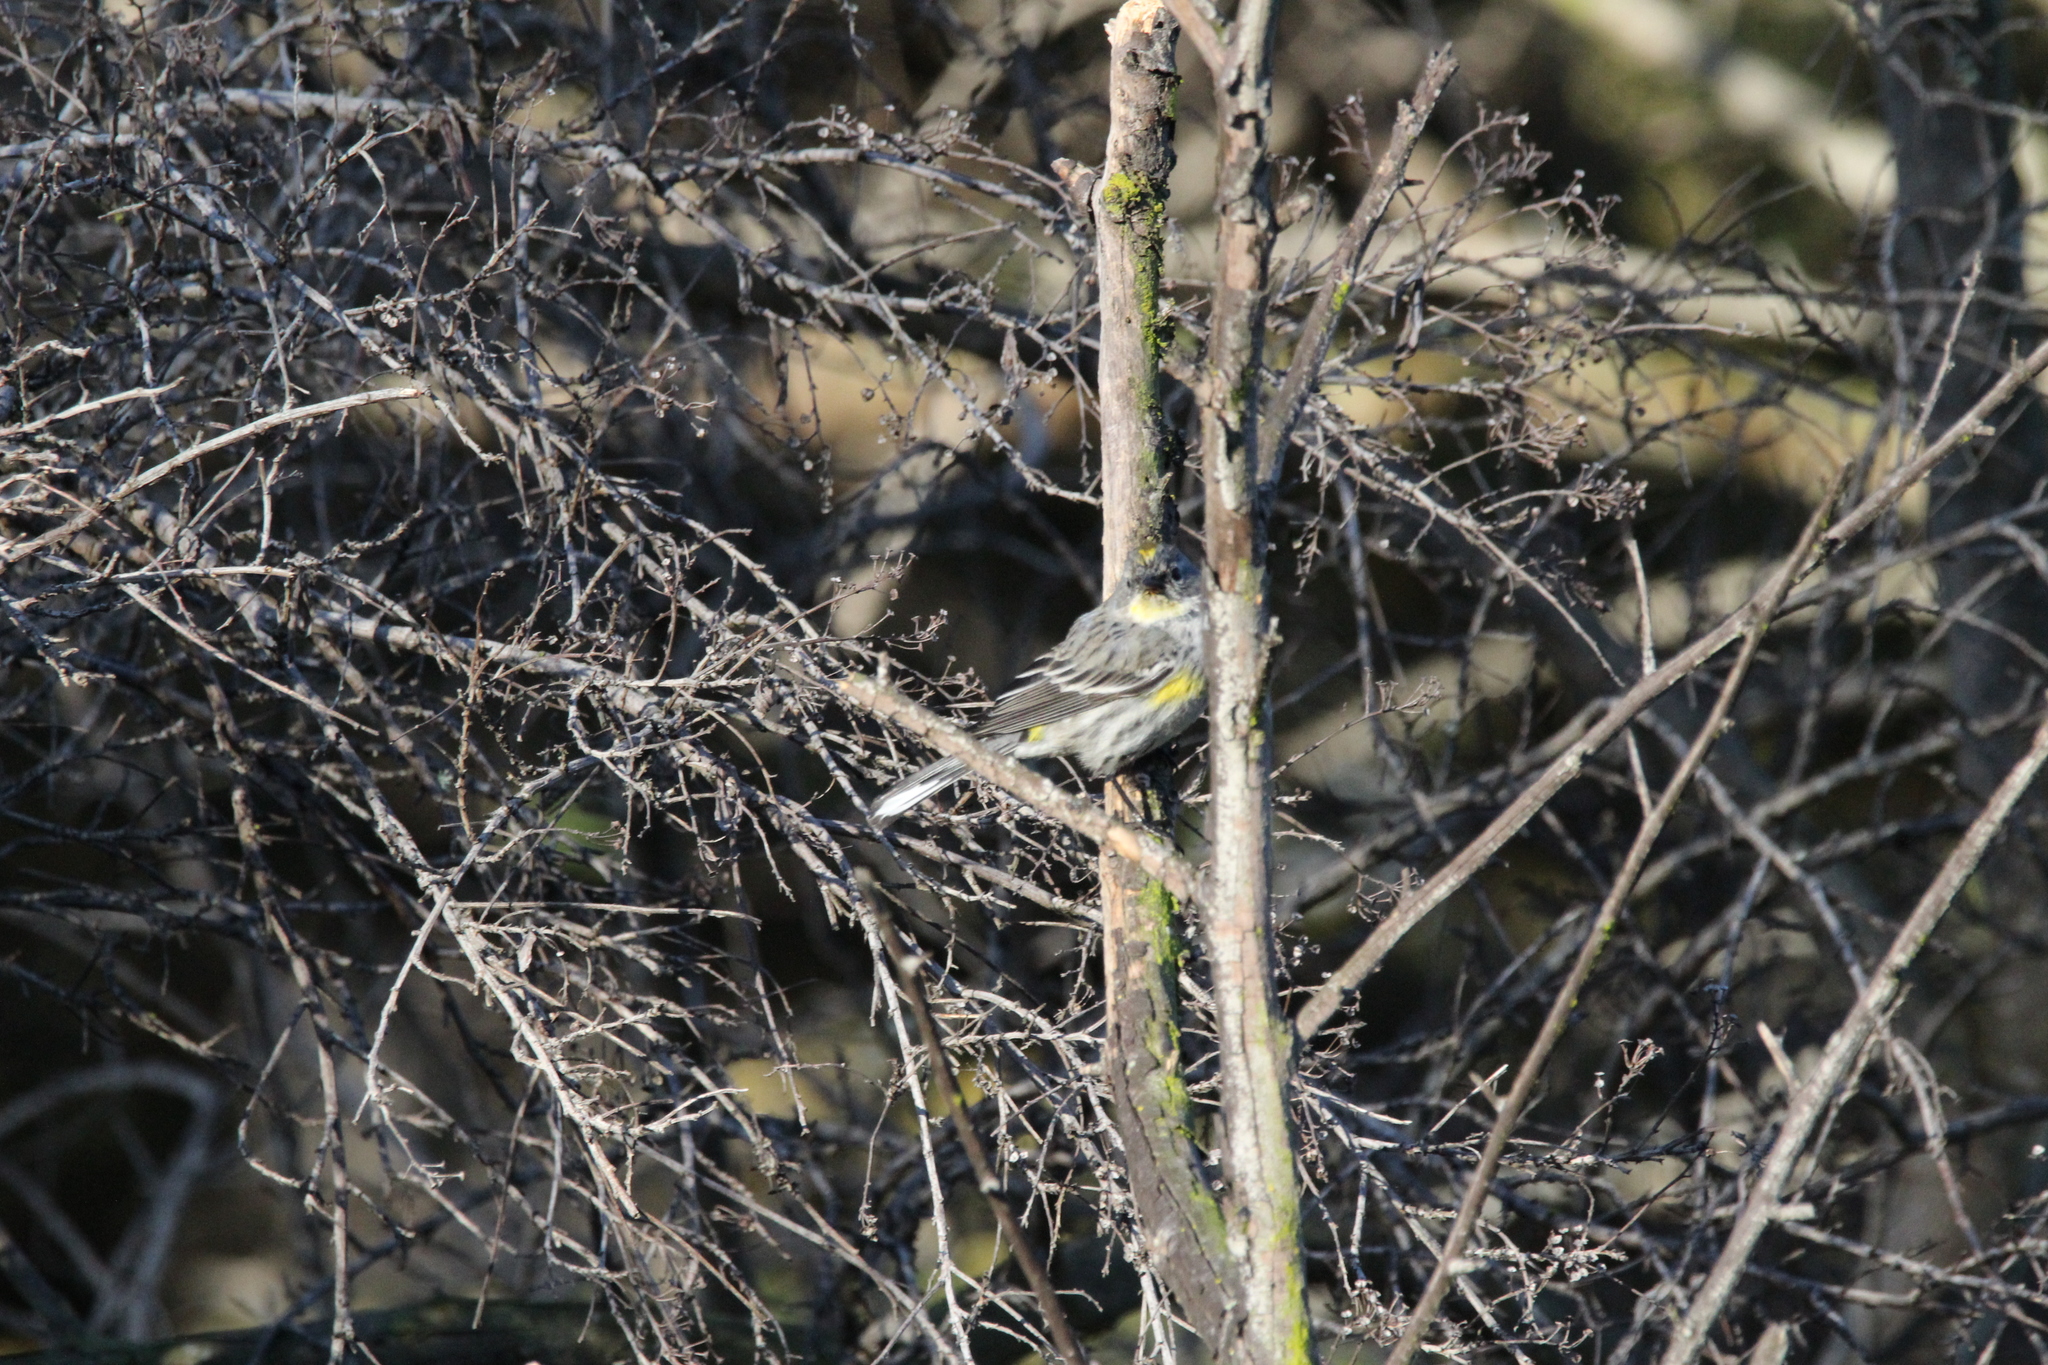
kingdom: Animalia
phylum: Chordata
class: Aves
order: Passeriformes
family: Parulidae
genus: Setophaga
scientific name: Setophaga coronata
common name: Myrtle warbler
